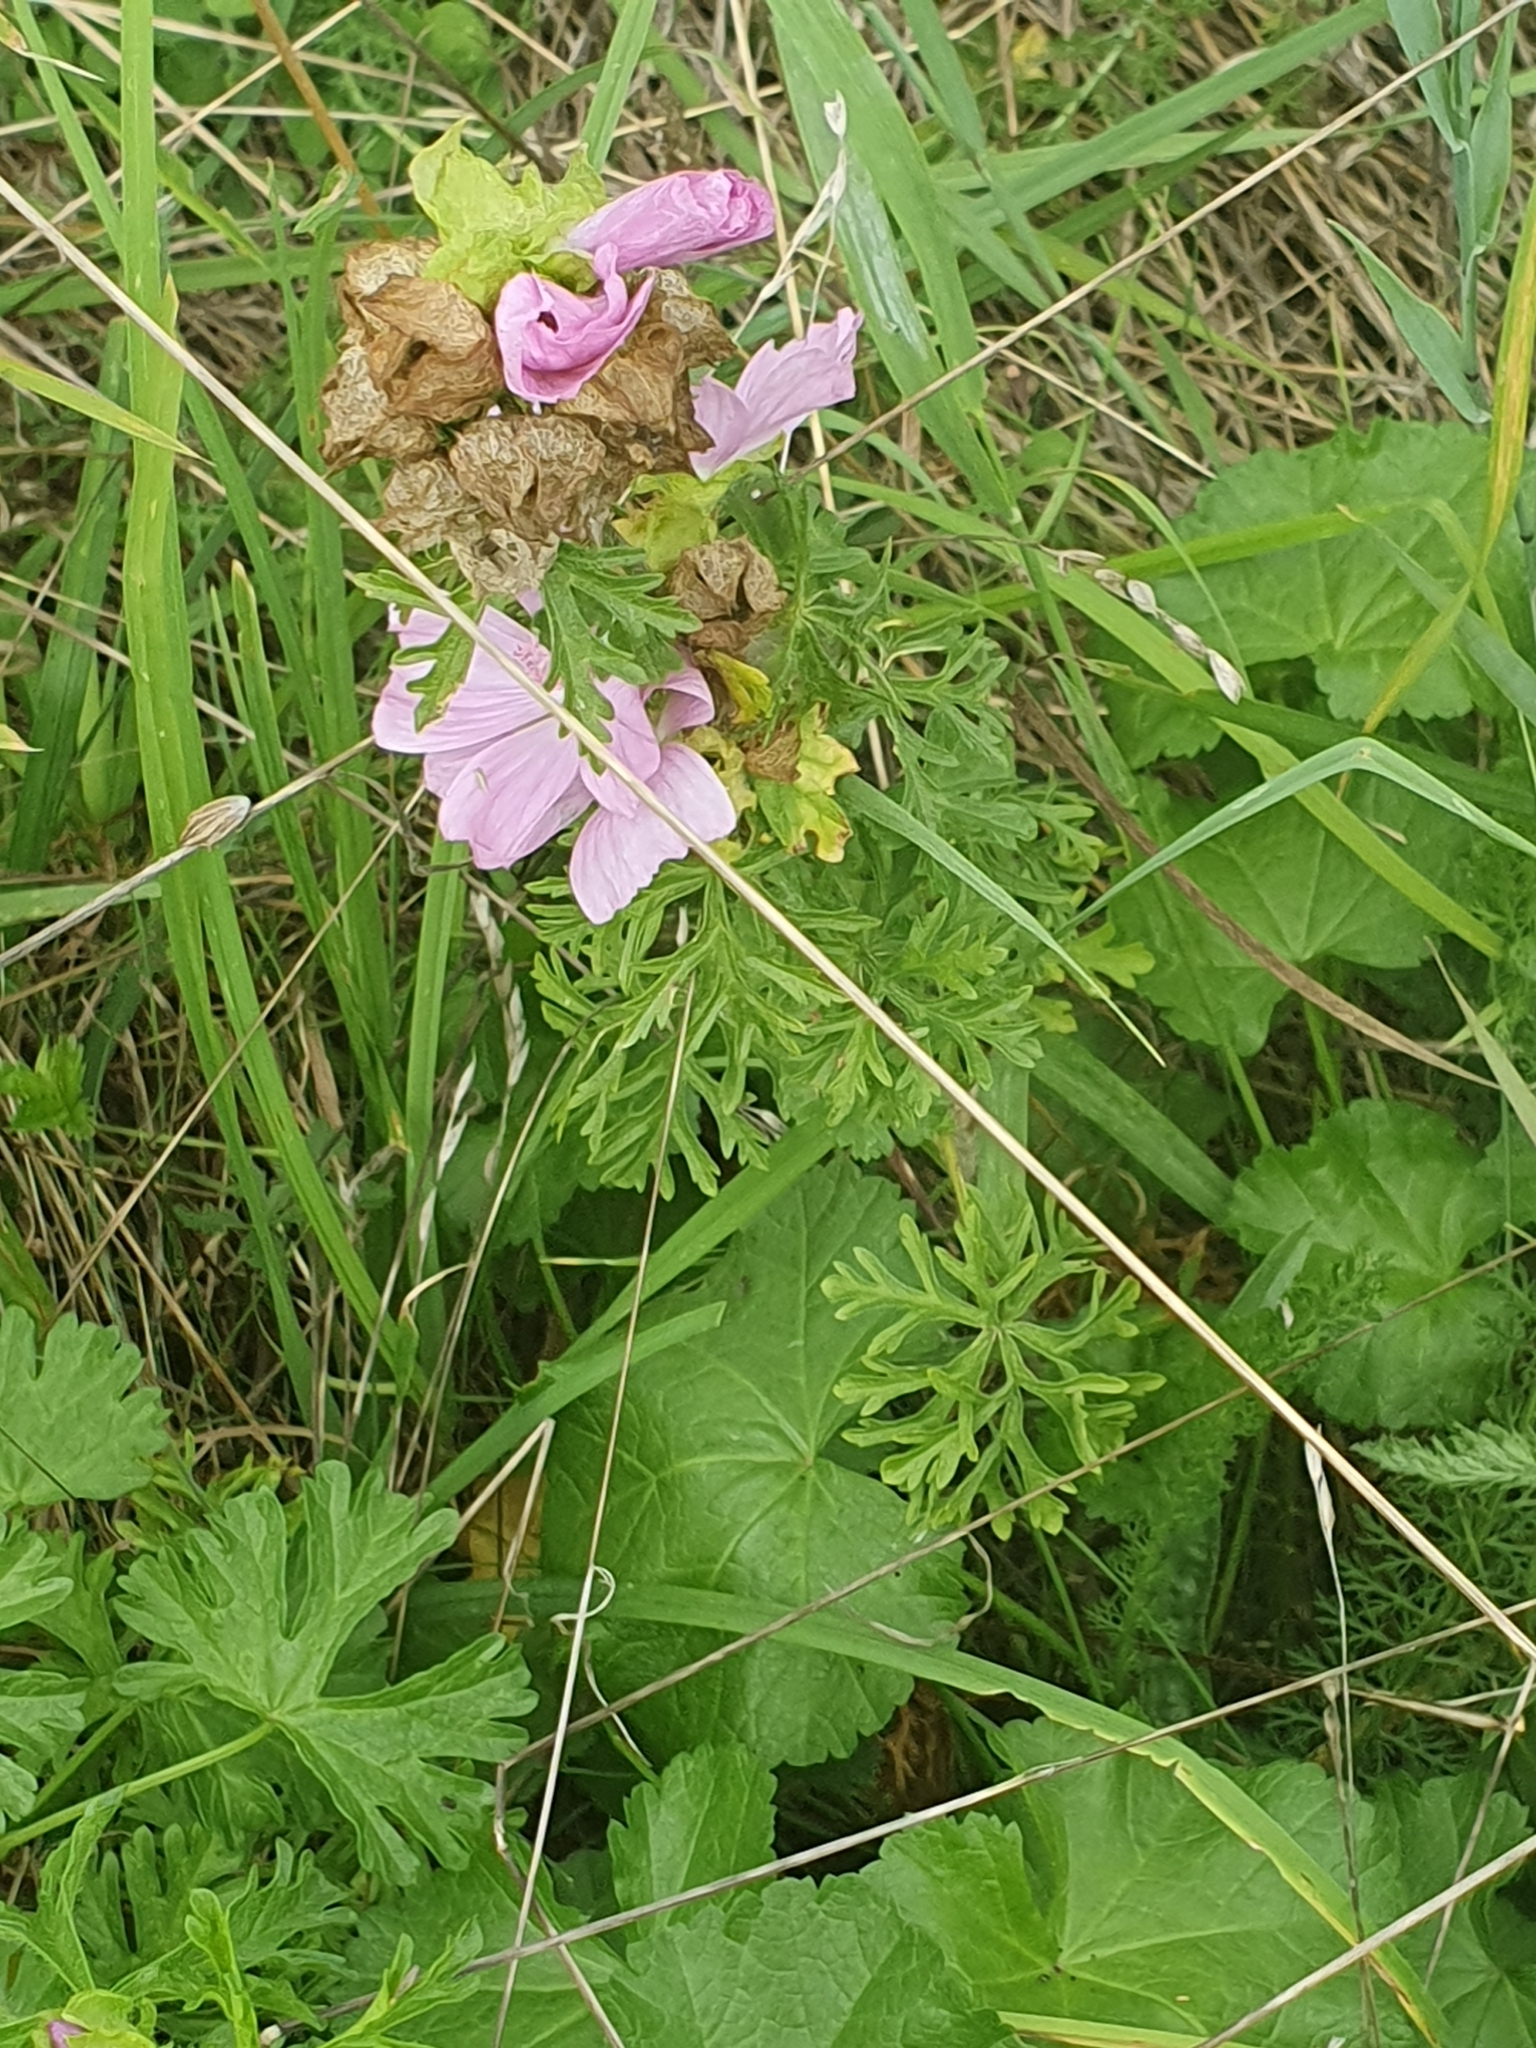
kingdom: Plantae
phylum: Tracheophyta
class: Magnoliopsida
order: Malvales
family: Malvaceae
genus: Malva
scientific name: Malva moschata
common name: Musk mallow
